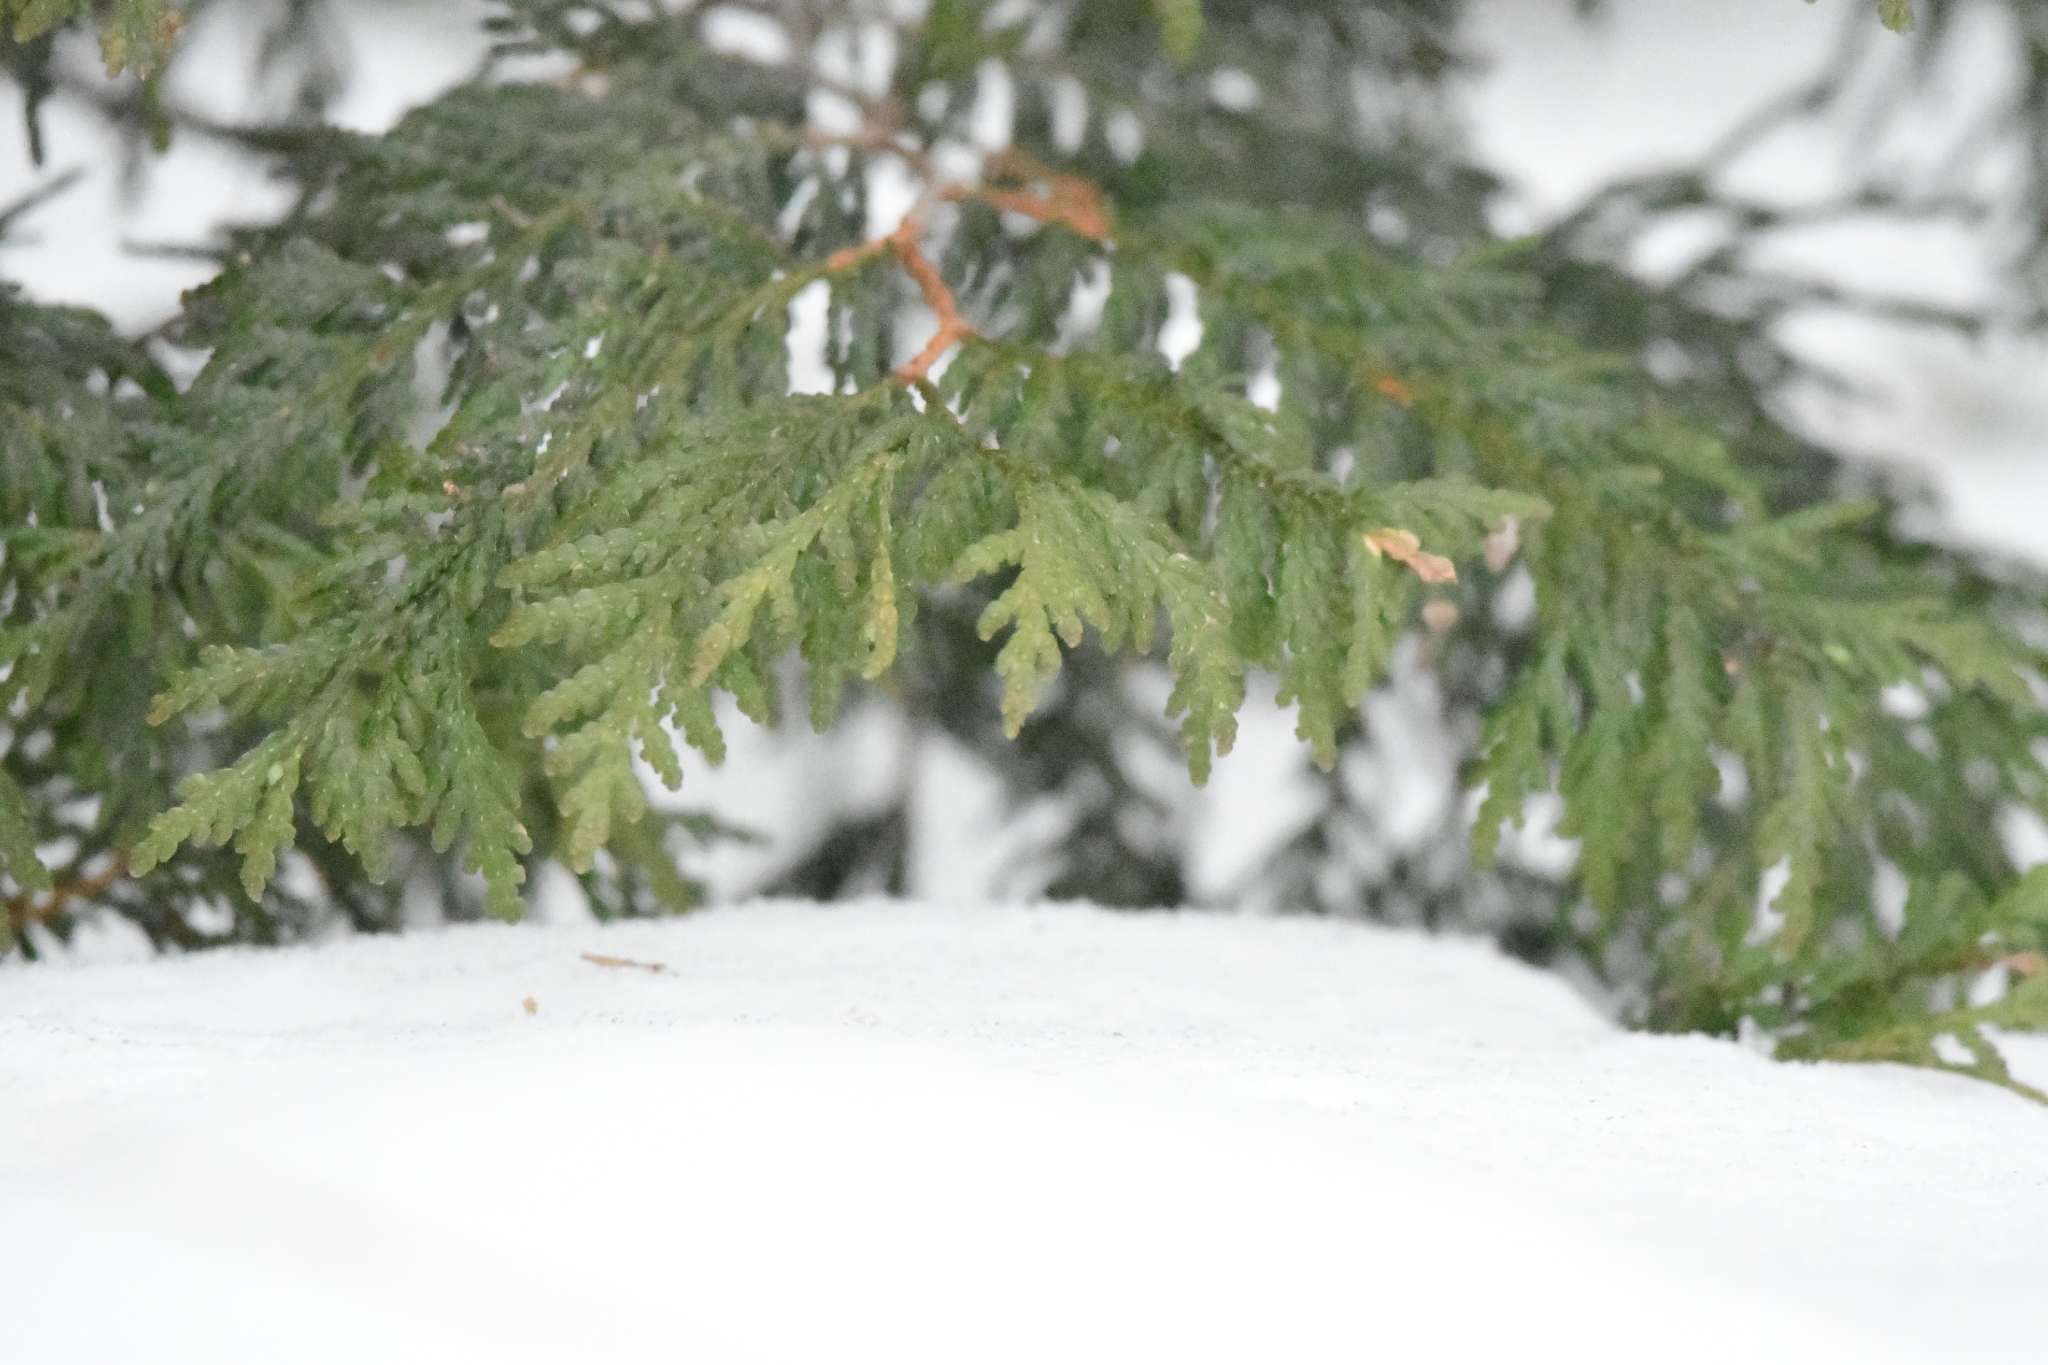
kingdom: Plantae
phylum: Tracheophyta
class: Pinopsida
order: Pinales
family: Cupressaceae
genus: Thuja
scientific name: Thuja occidentalis
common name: Northern white-cedar
